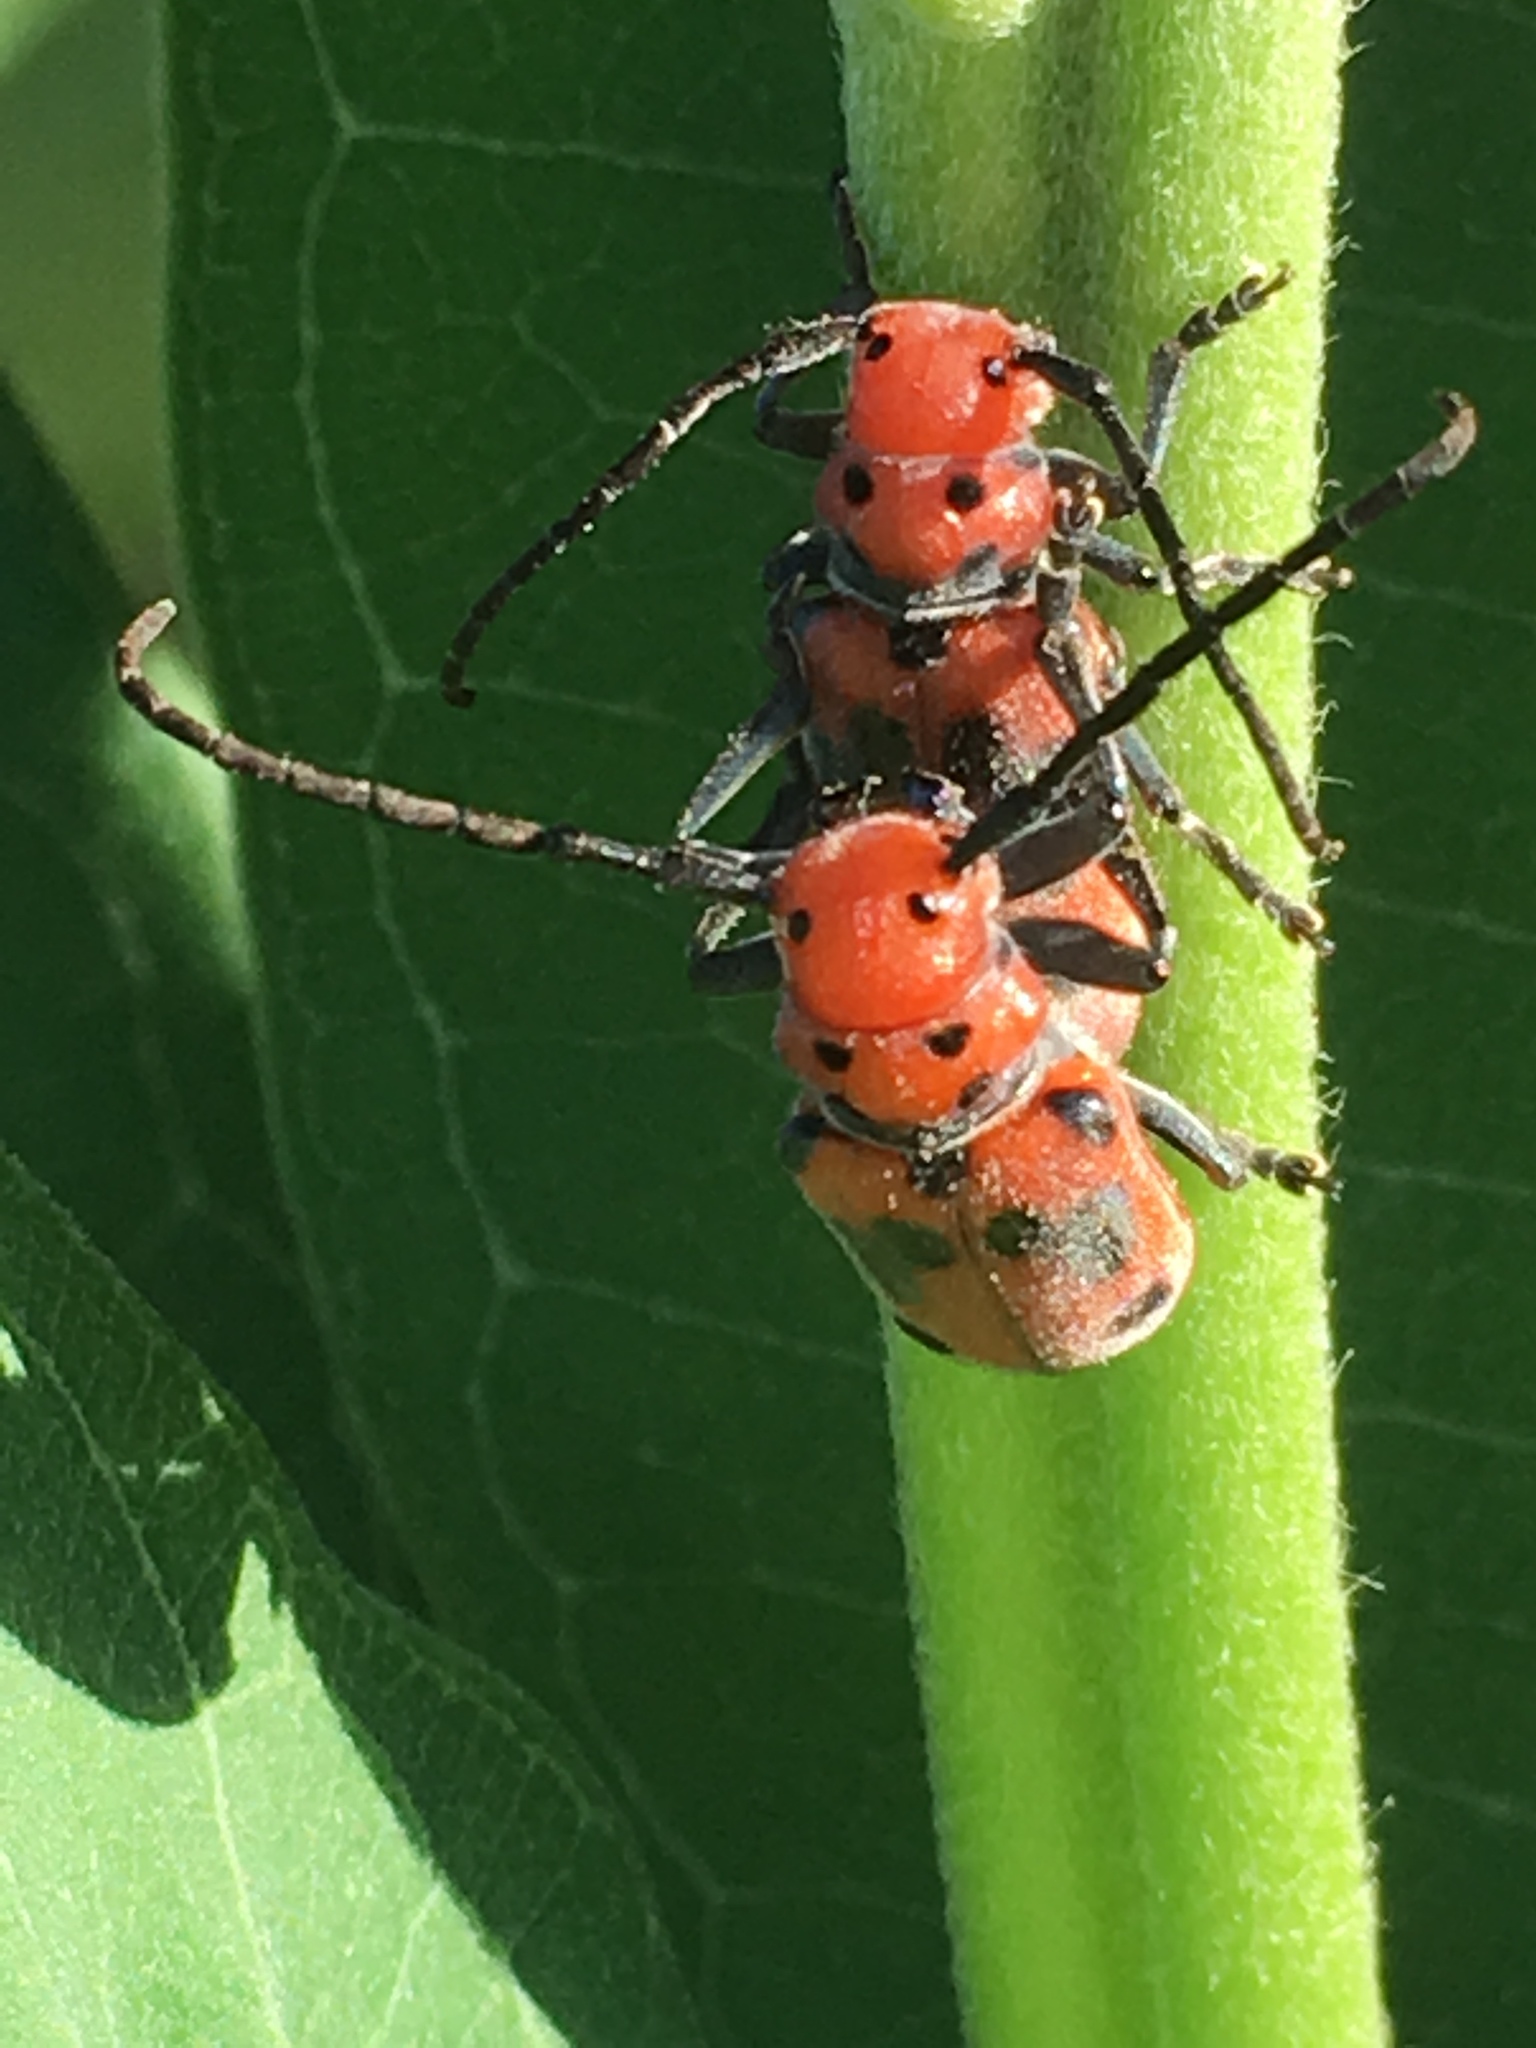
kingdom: Animalia
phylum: Arthropoda
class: Insecta
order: Coleoptera
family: Cerambycidae
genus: Tetraopes
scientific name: Tetraopes tetrophthalmus
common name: Red milkweed beetle
